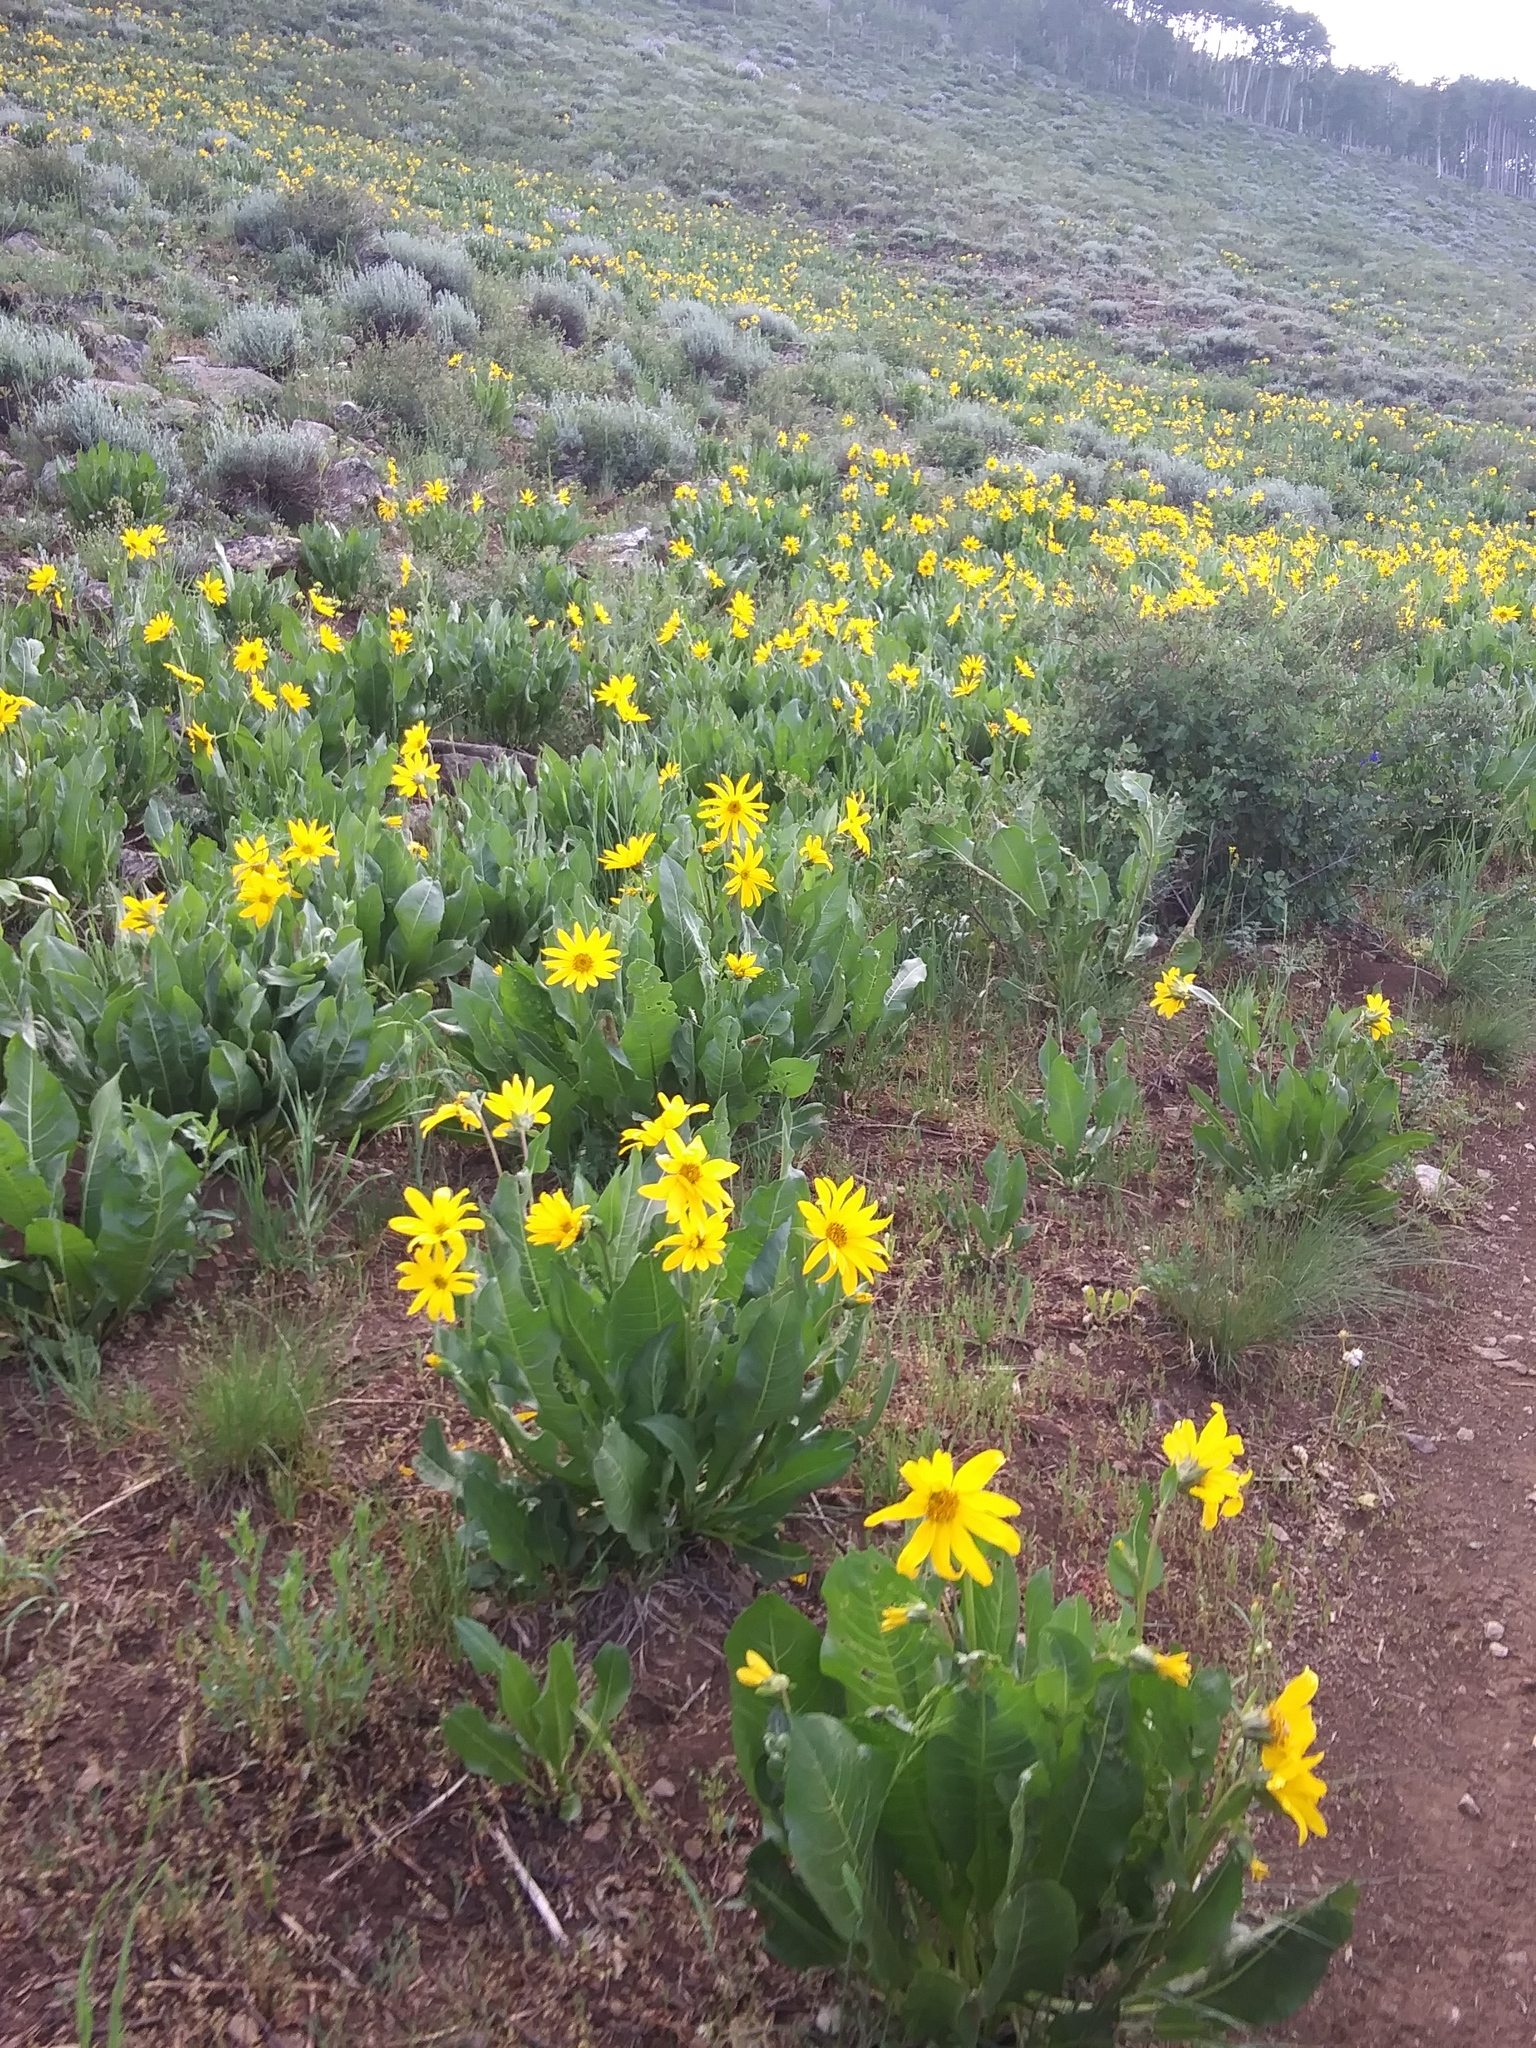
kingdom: Plantae
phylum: Tracheophyta
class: Magnoliopsida
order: Asterales
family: Asteraceae
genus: Wyethia
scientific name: Wyethia amplexicaulis
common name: Northern mule's-ears
